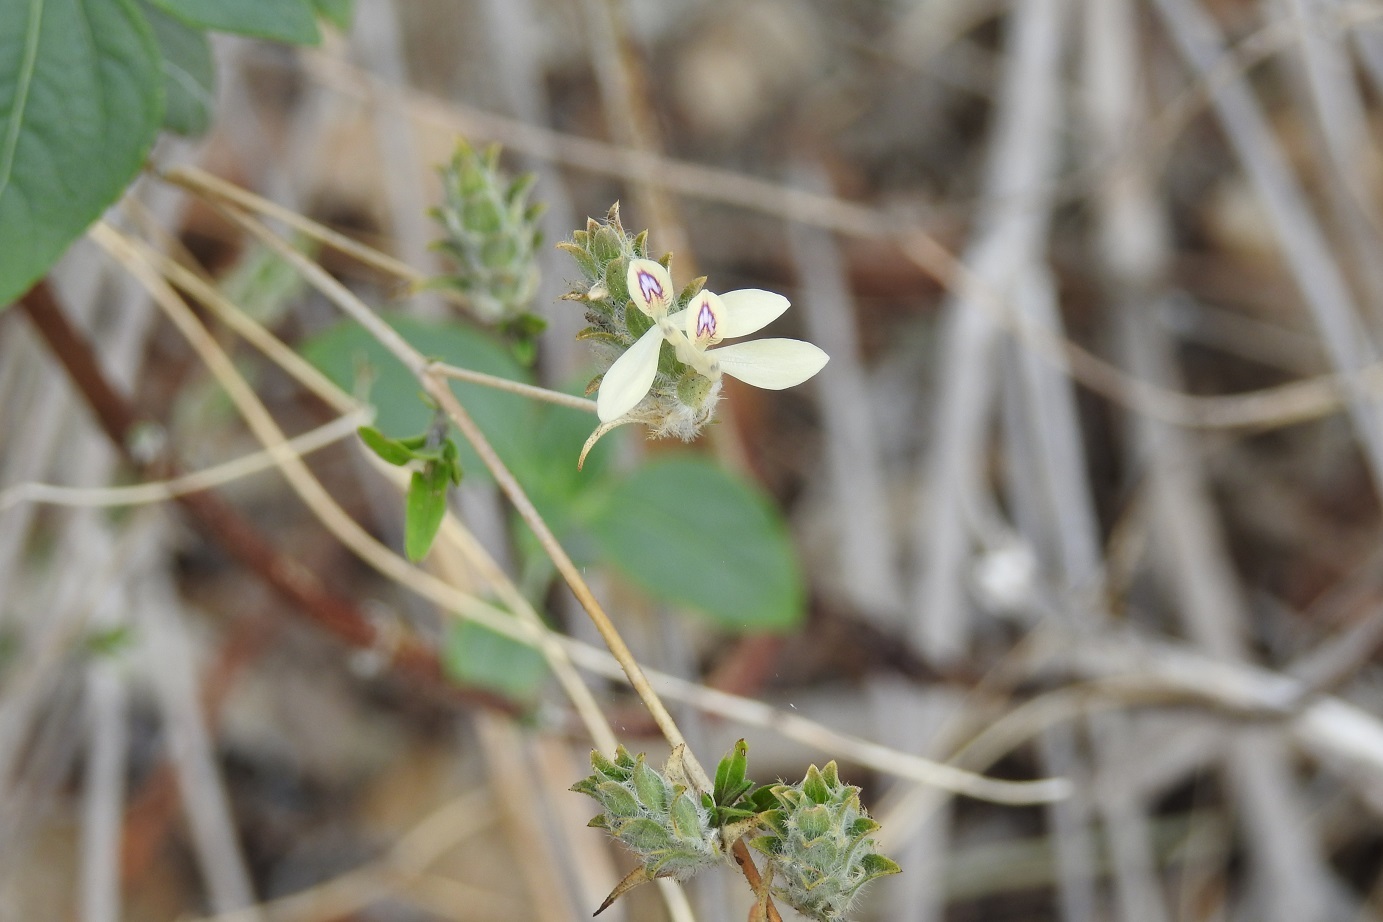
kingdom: Plantae
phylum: Tracheophyta
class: Magnoliopsida
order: Lamiales
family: Acanthaceae
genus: Tetramerium
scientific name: Tetramerium nervosum
